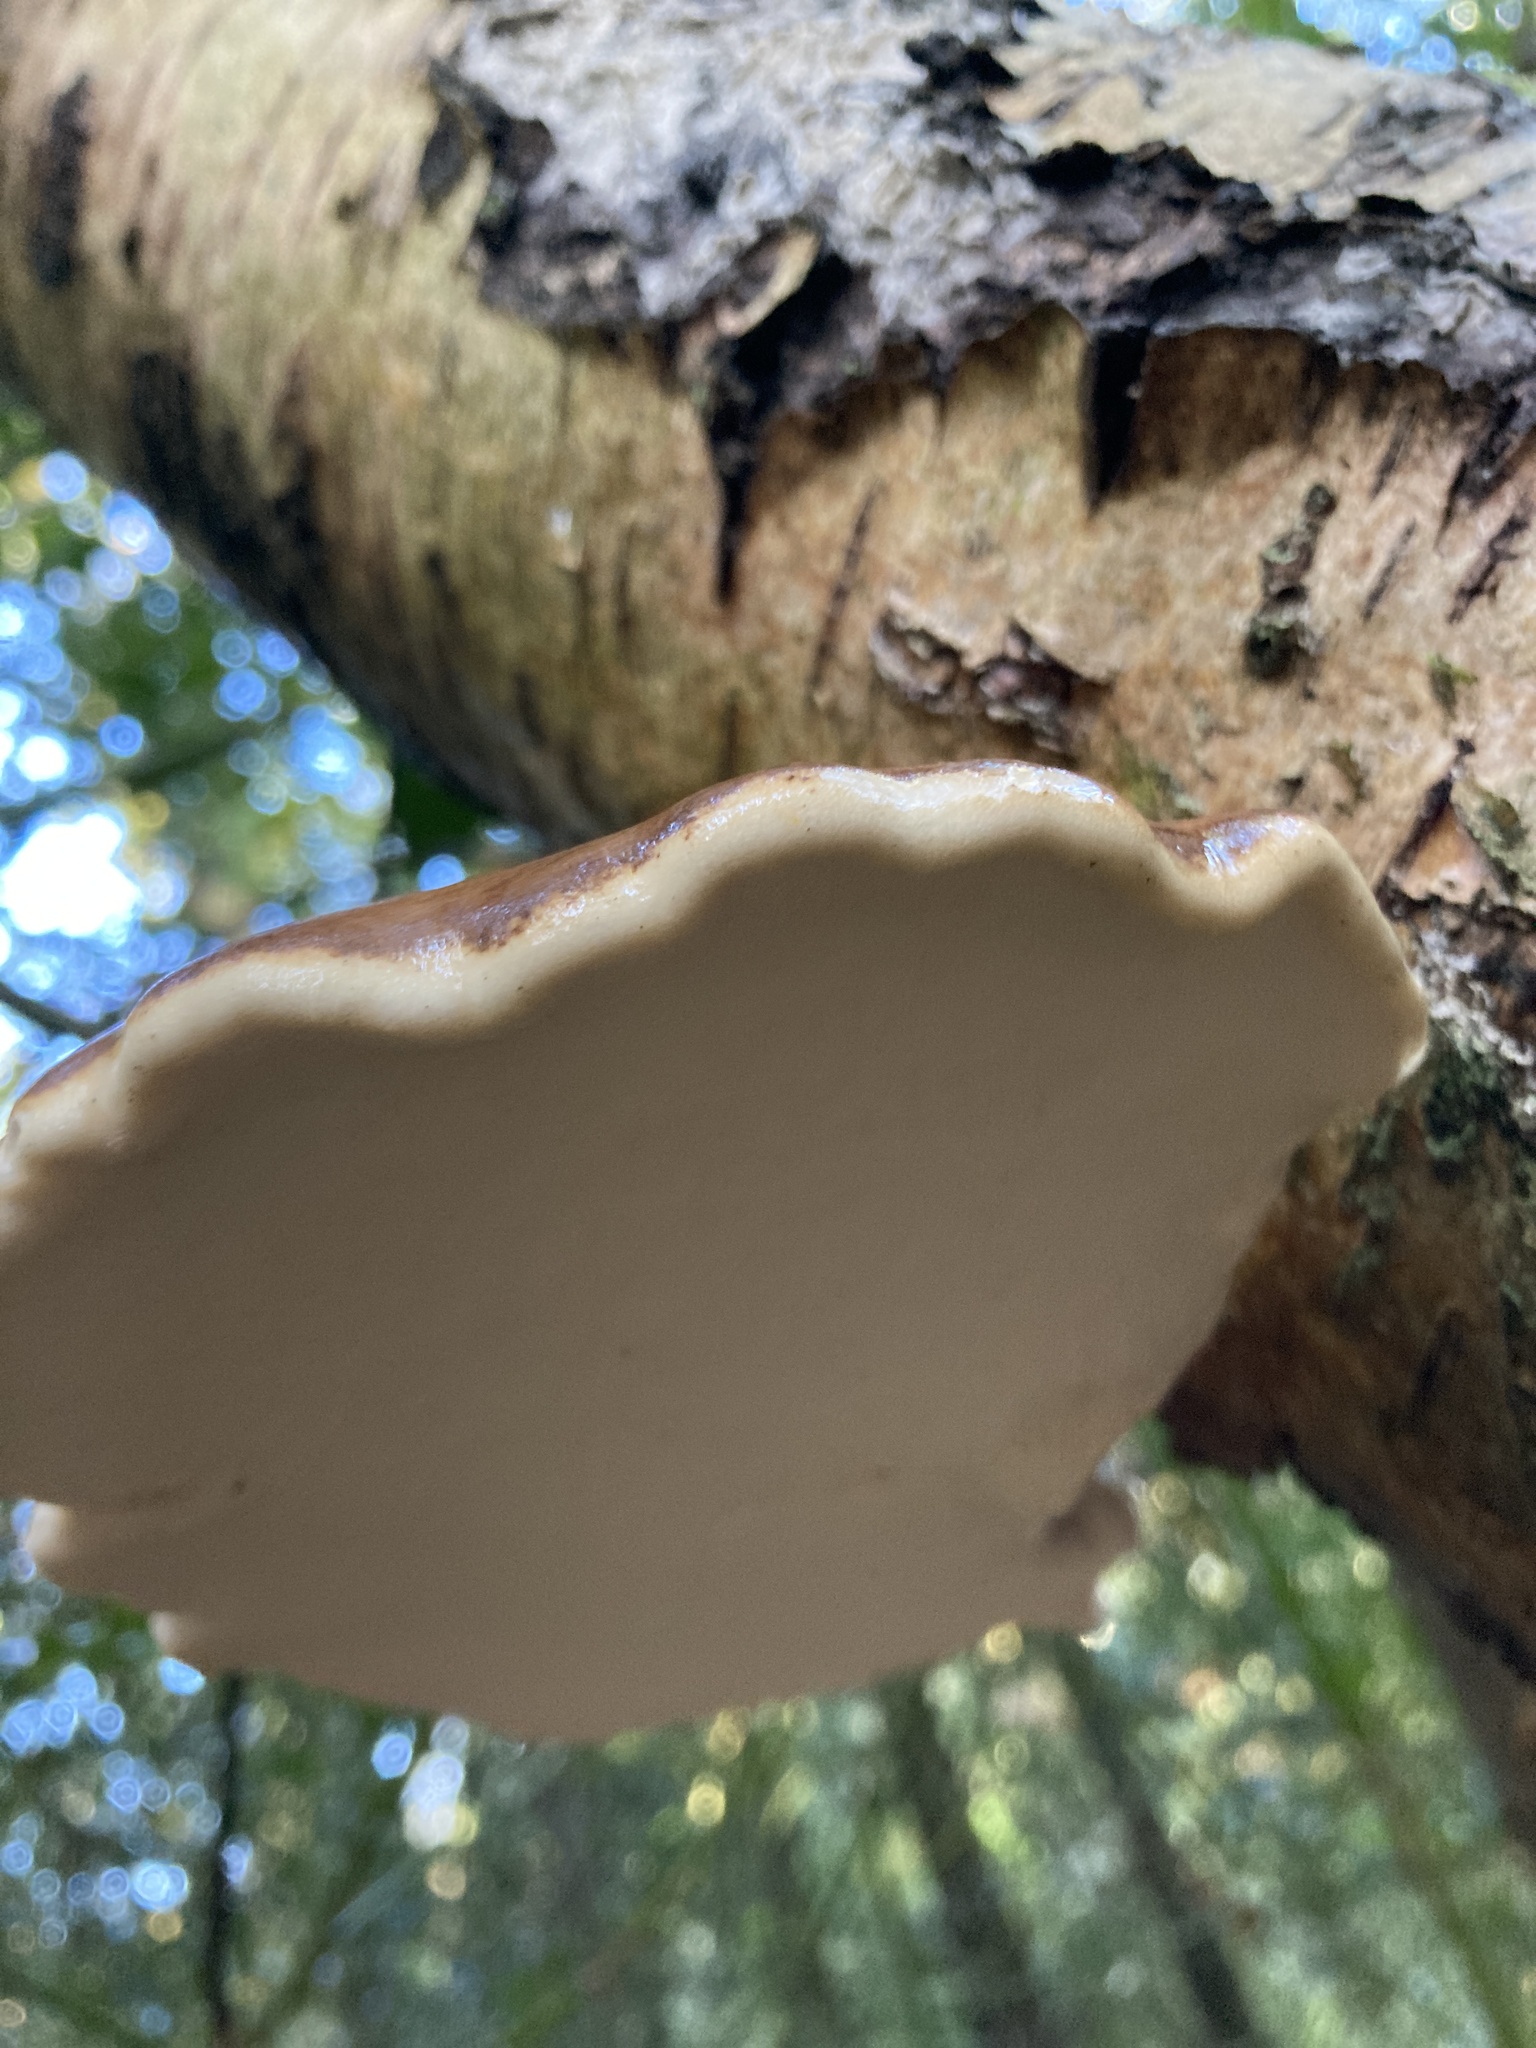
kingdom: Fungi
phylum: Basidiomycota
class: Agaricomycetes
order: Polyporales
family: Fomitopsidaceae
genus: Fomitopsis
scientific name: Fomitopsis betulina
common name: Birch polypore
